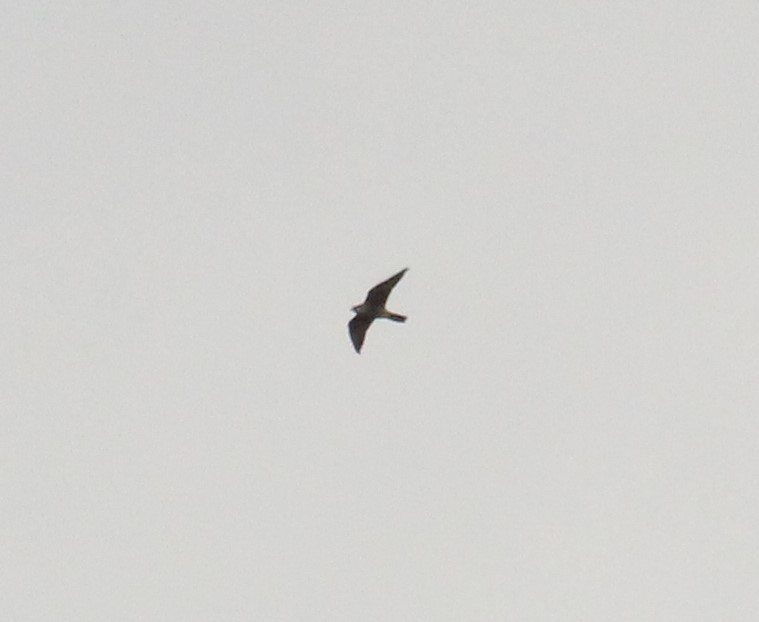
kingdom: Animalia
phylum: Chordata
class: Aves
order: Falconiformes
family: Falconidae
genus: Falco
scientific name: Falco peregrinus
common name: Peregrine falcon
